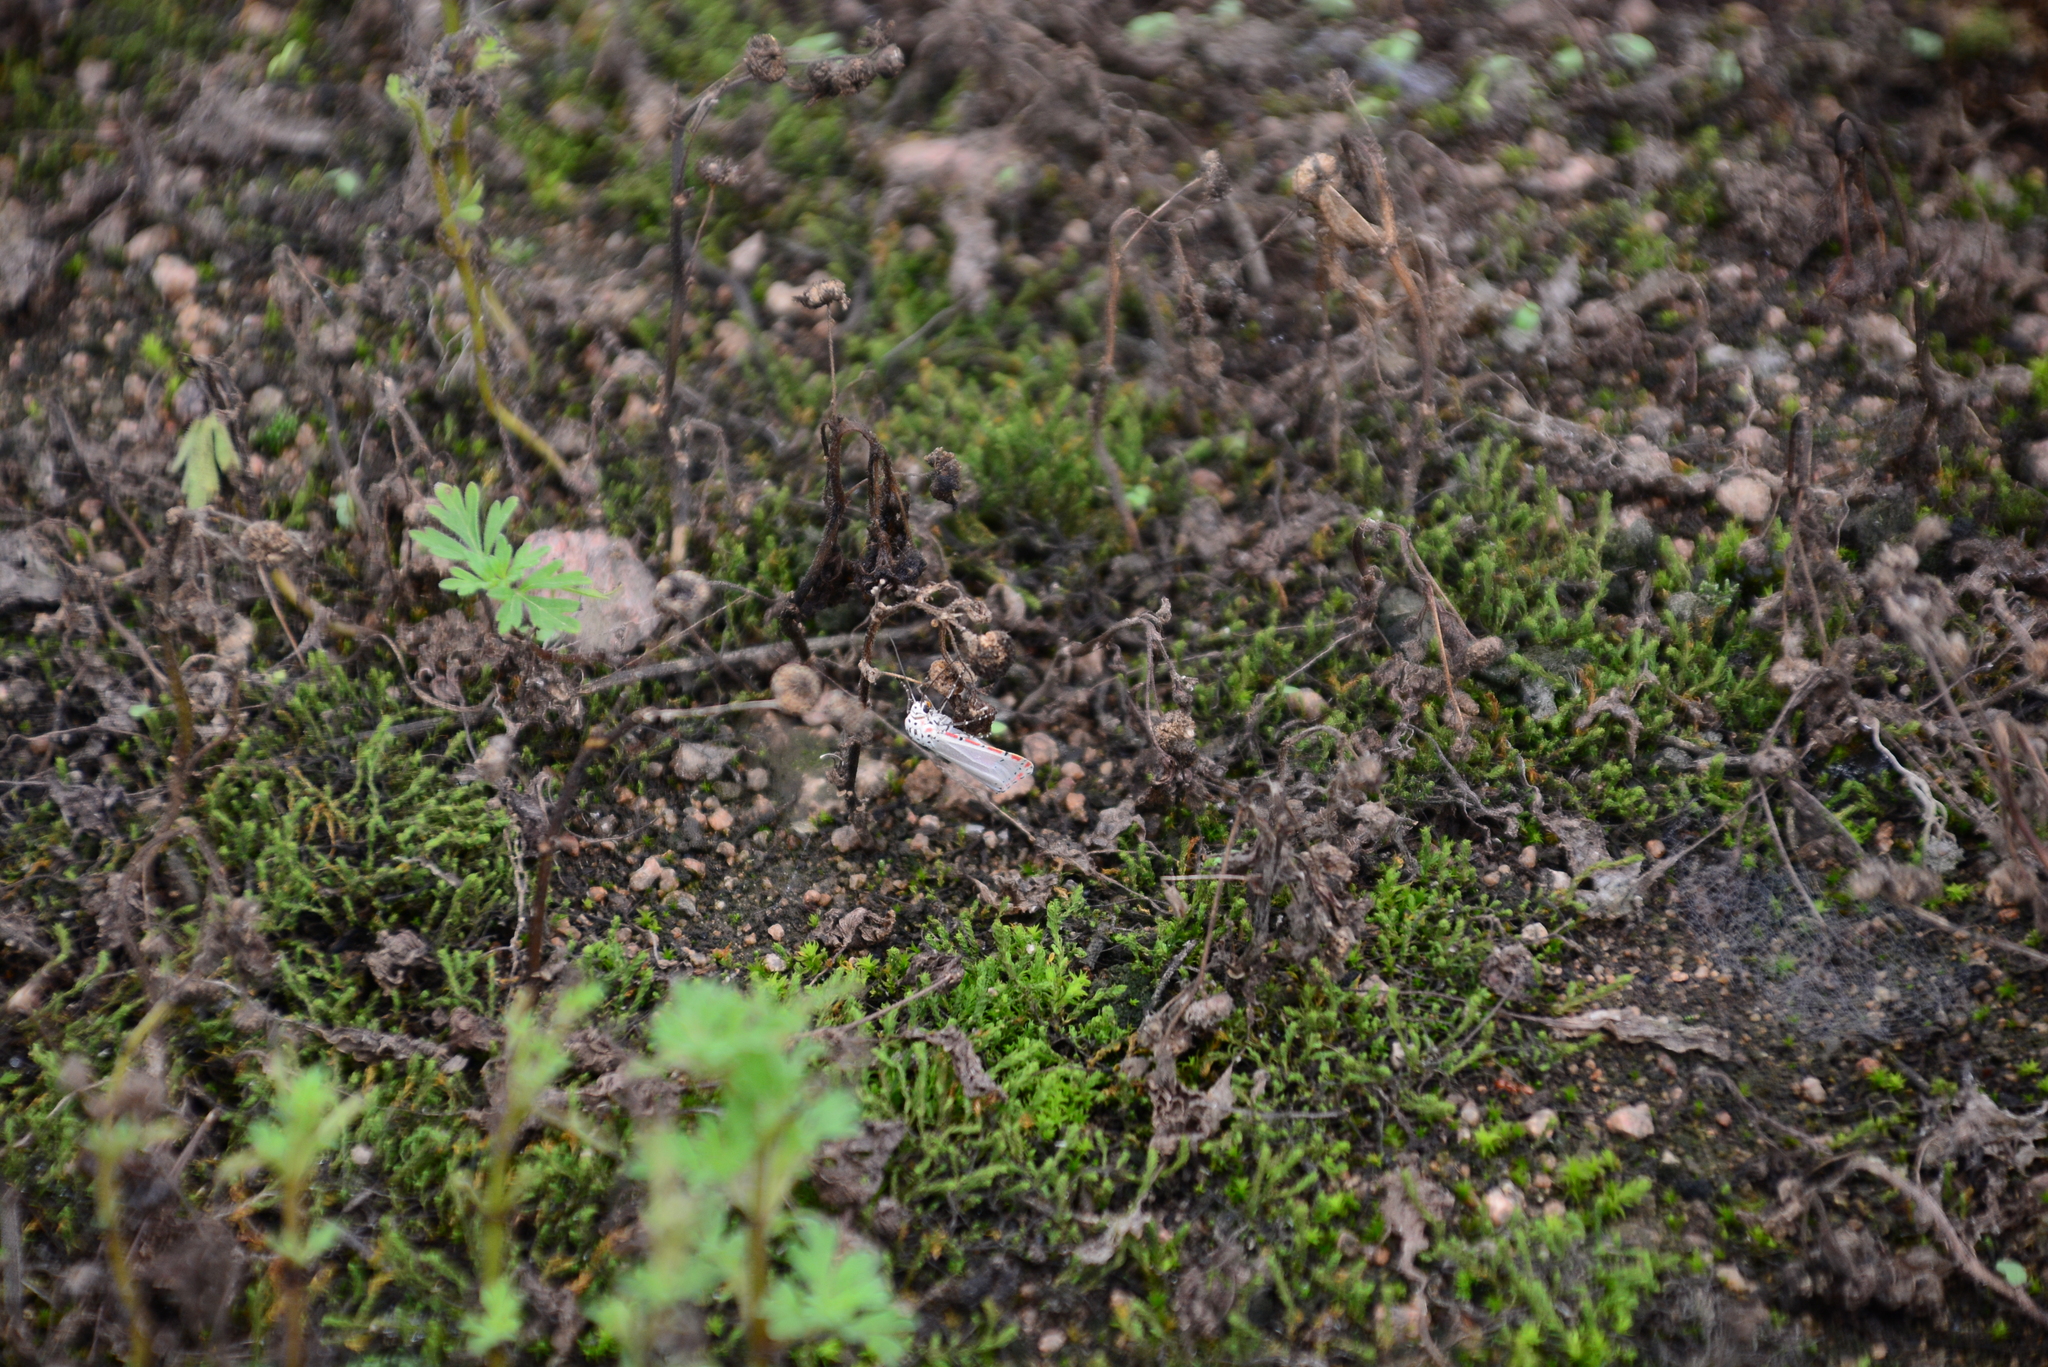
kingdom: Animalia
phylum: Arthropoda
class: Insecta
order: Lepidoptera
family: Erebidae
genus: Utetheisa
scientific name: Utetheisa ornatrix
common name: Beautiful utetheisa
